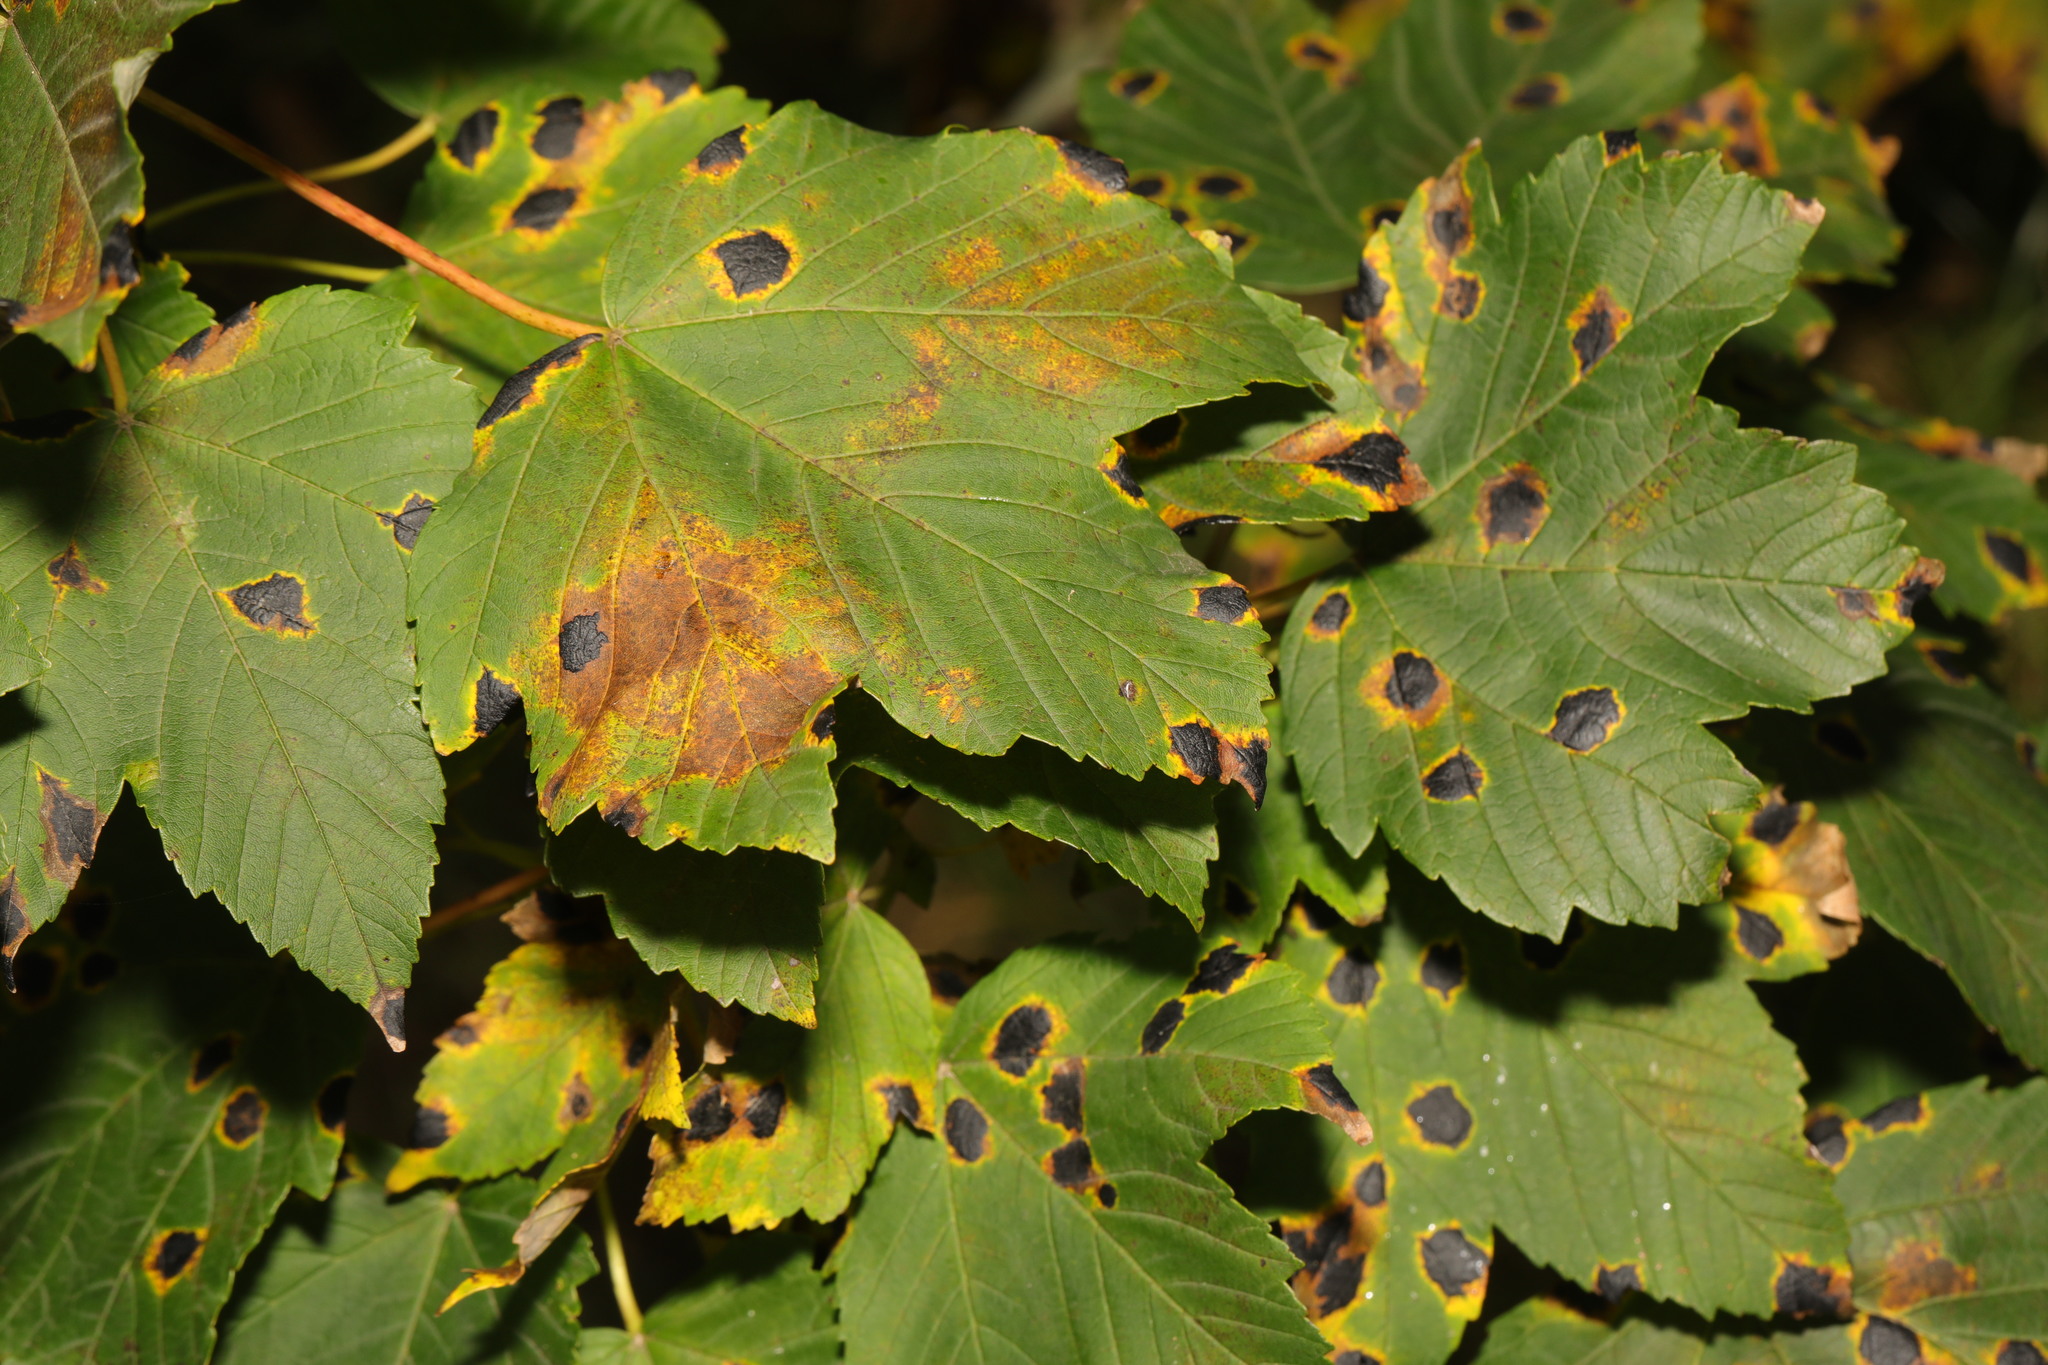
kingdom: Plantae
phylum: Tracheophyta
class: Magnoliopsida
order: Sapindales
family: Sapindaceae
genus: Acer
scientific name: Acer pseudoplatanus
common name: Sycamore
